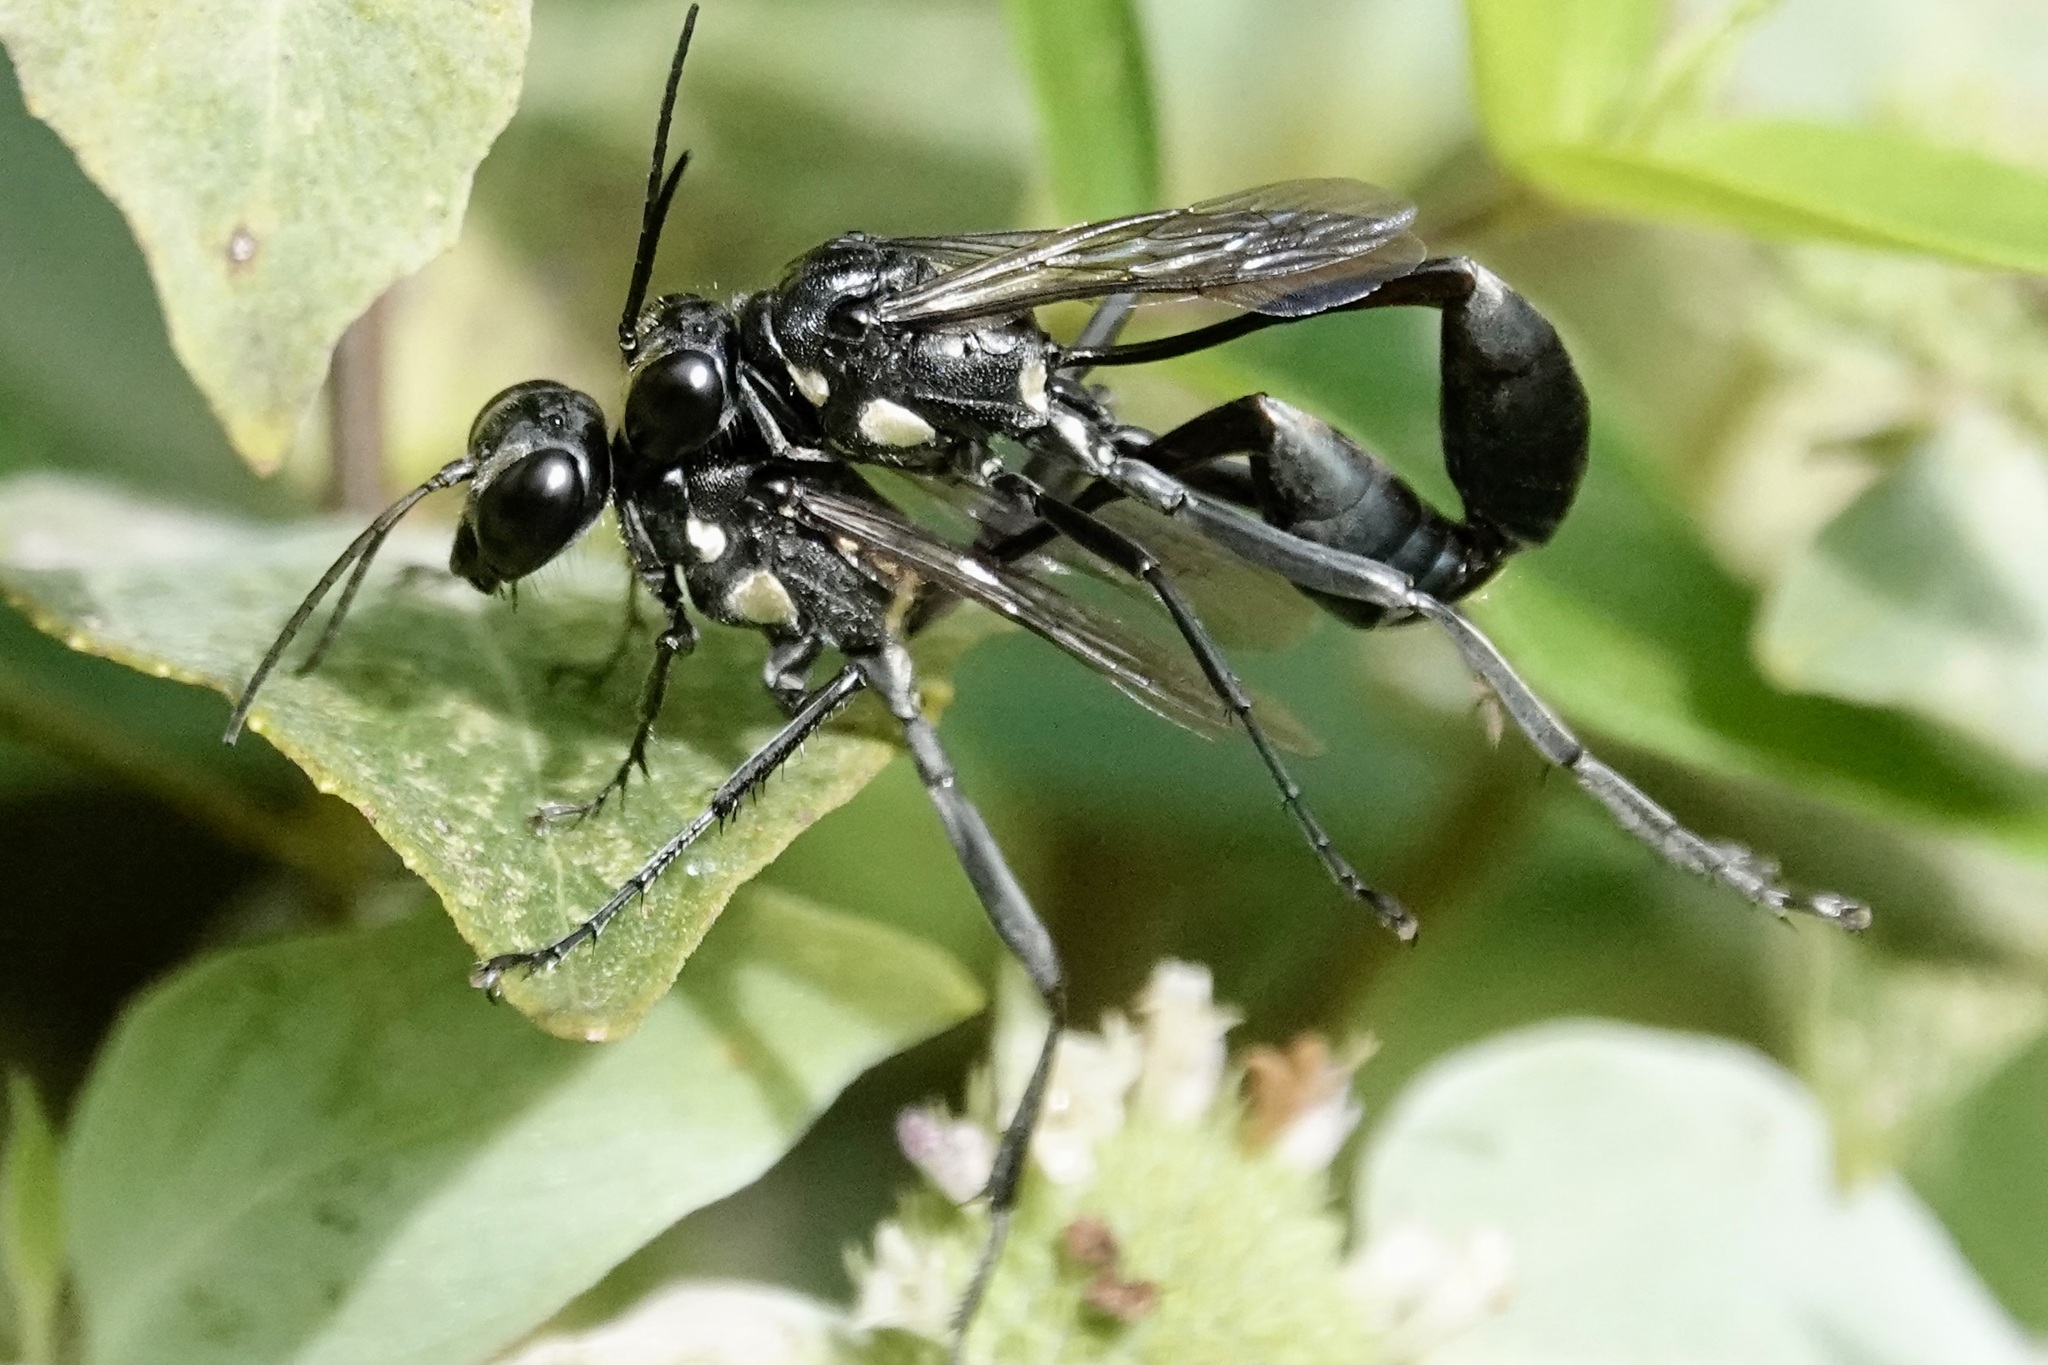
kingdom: Animalia
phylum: Arthropoda
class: Insecta
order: Hymenoptera
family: Sphecidae
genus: Eremnophila
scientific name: Eremnophila aureonotata
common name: Gold-marked thread-waisted wasp
